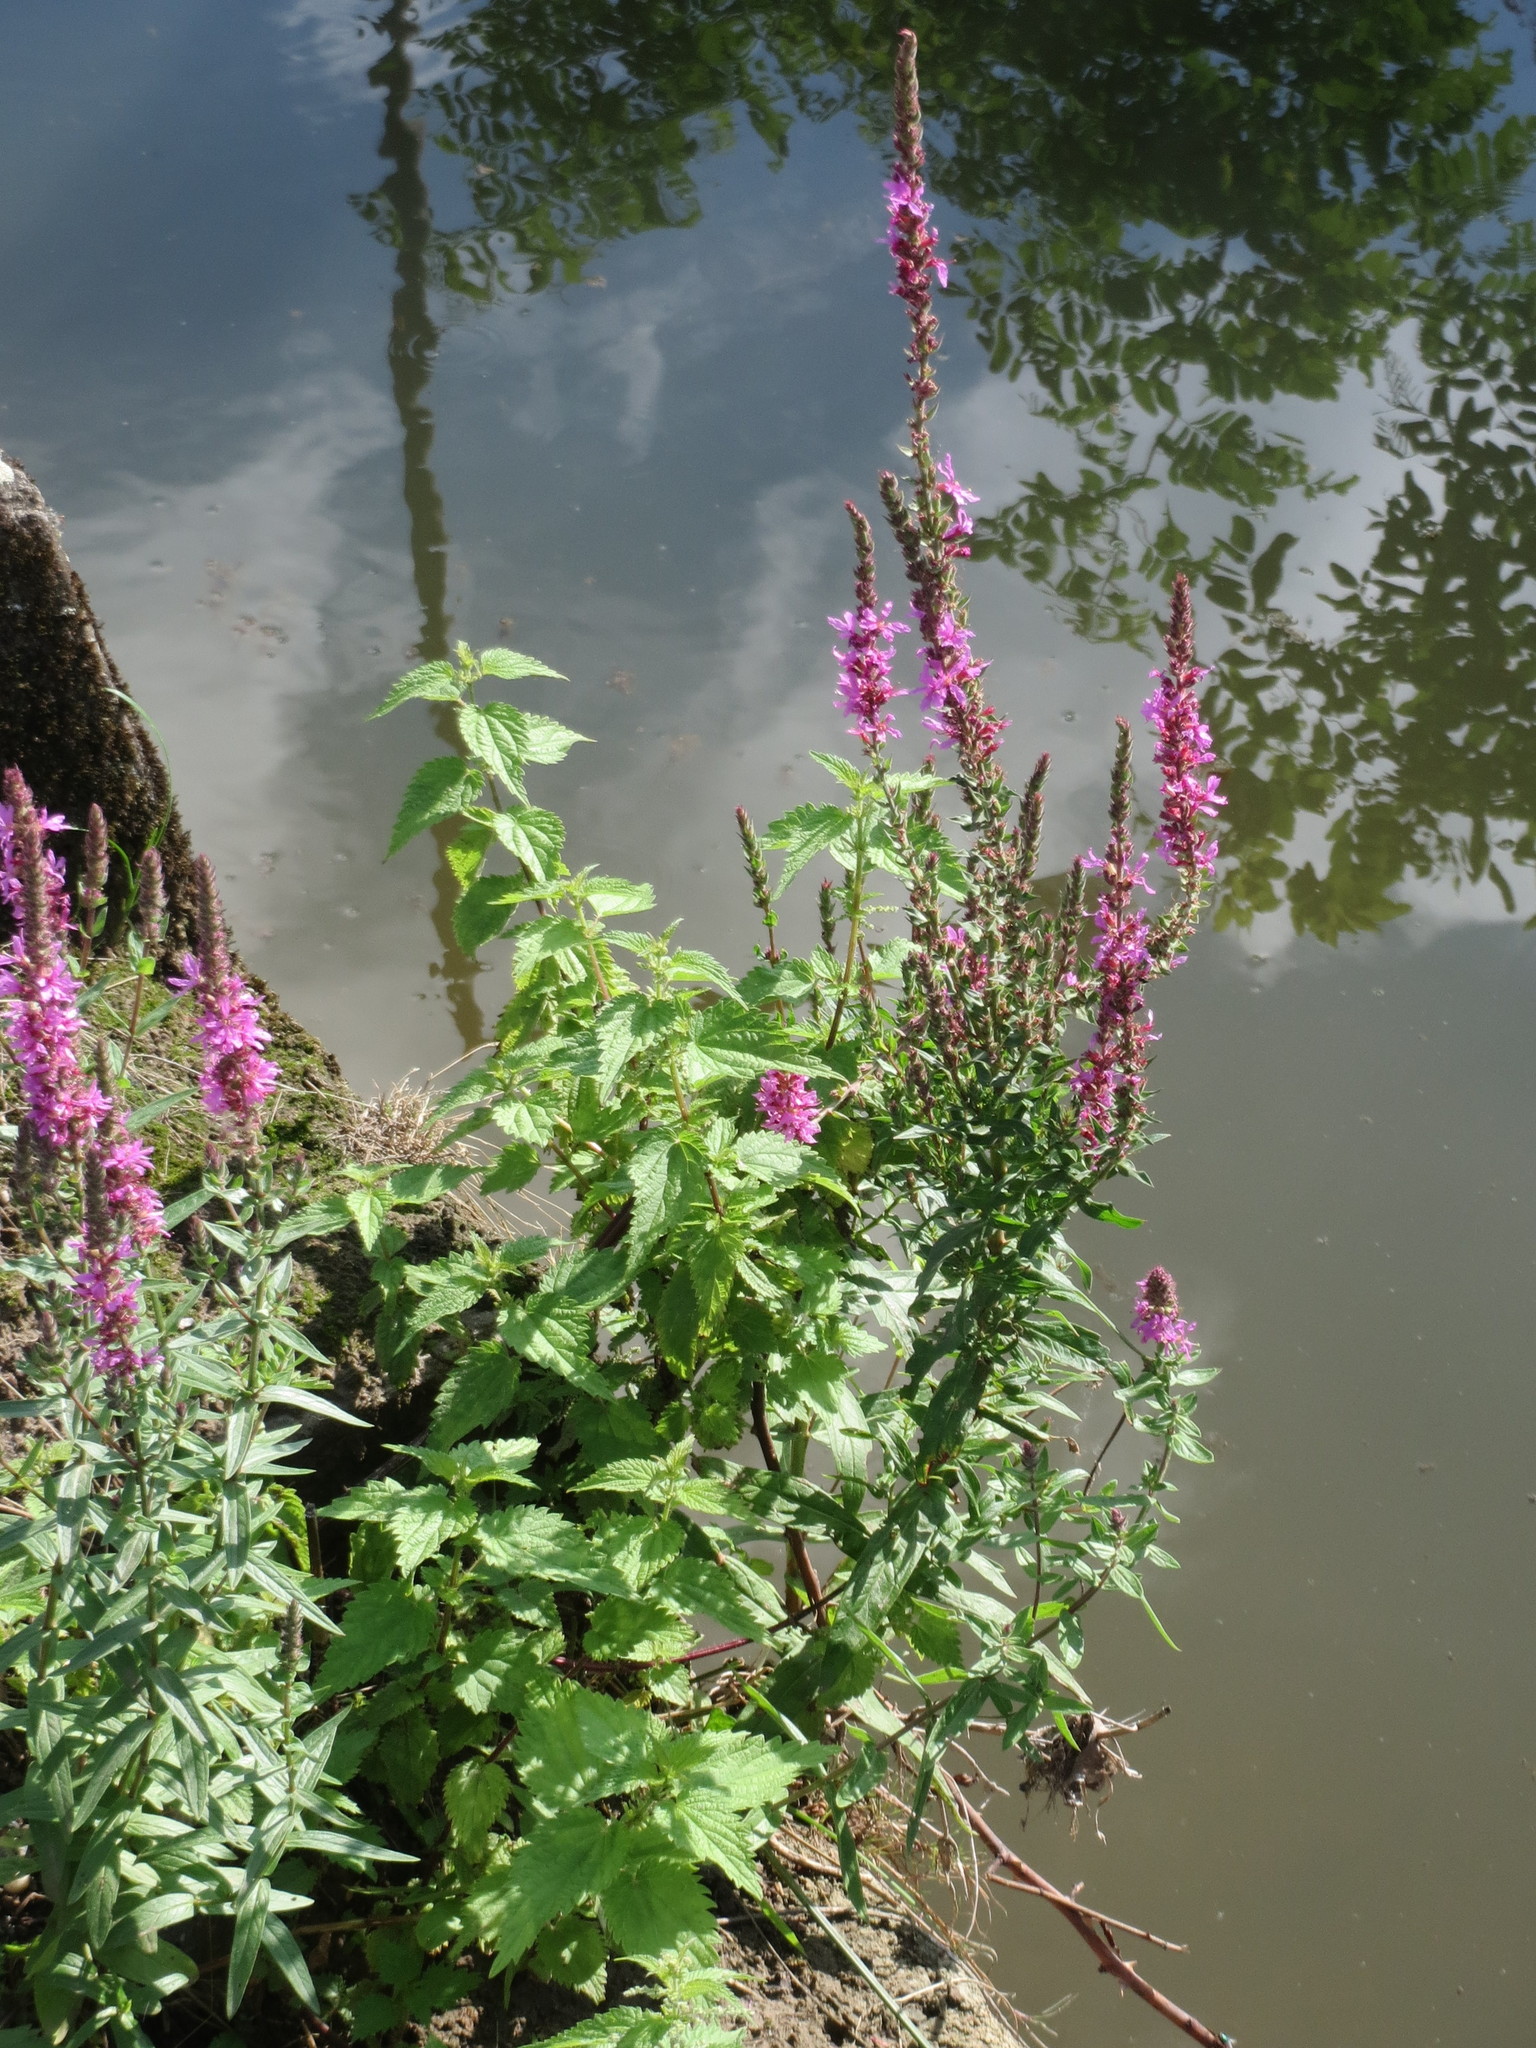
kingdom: Plantae
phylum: Tracheophyta
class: Magnoliopsida
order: Myrtales
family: Lythraceae
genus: Lythrum
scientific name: Lythrum salicaria
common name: Purple loosestrife
